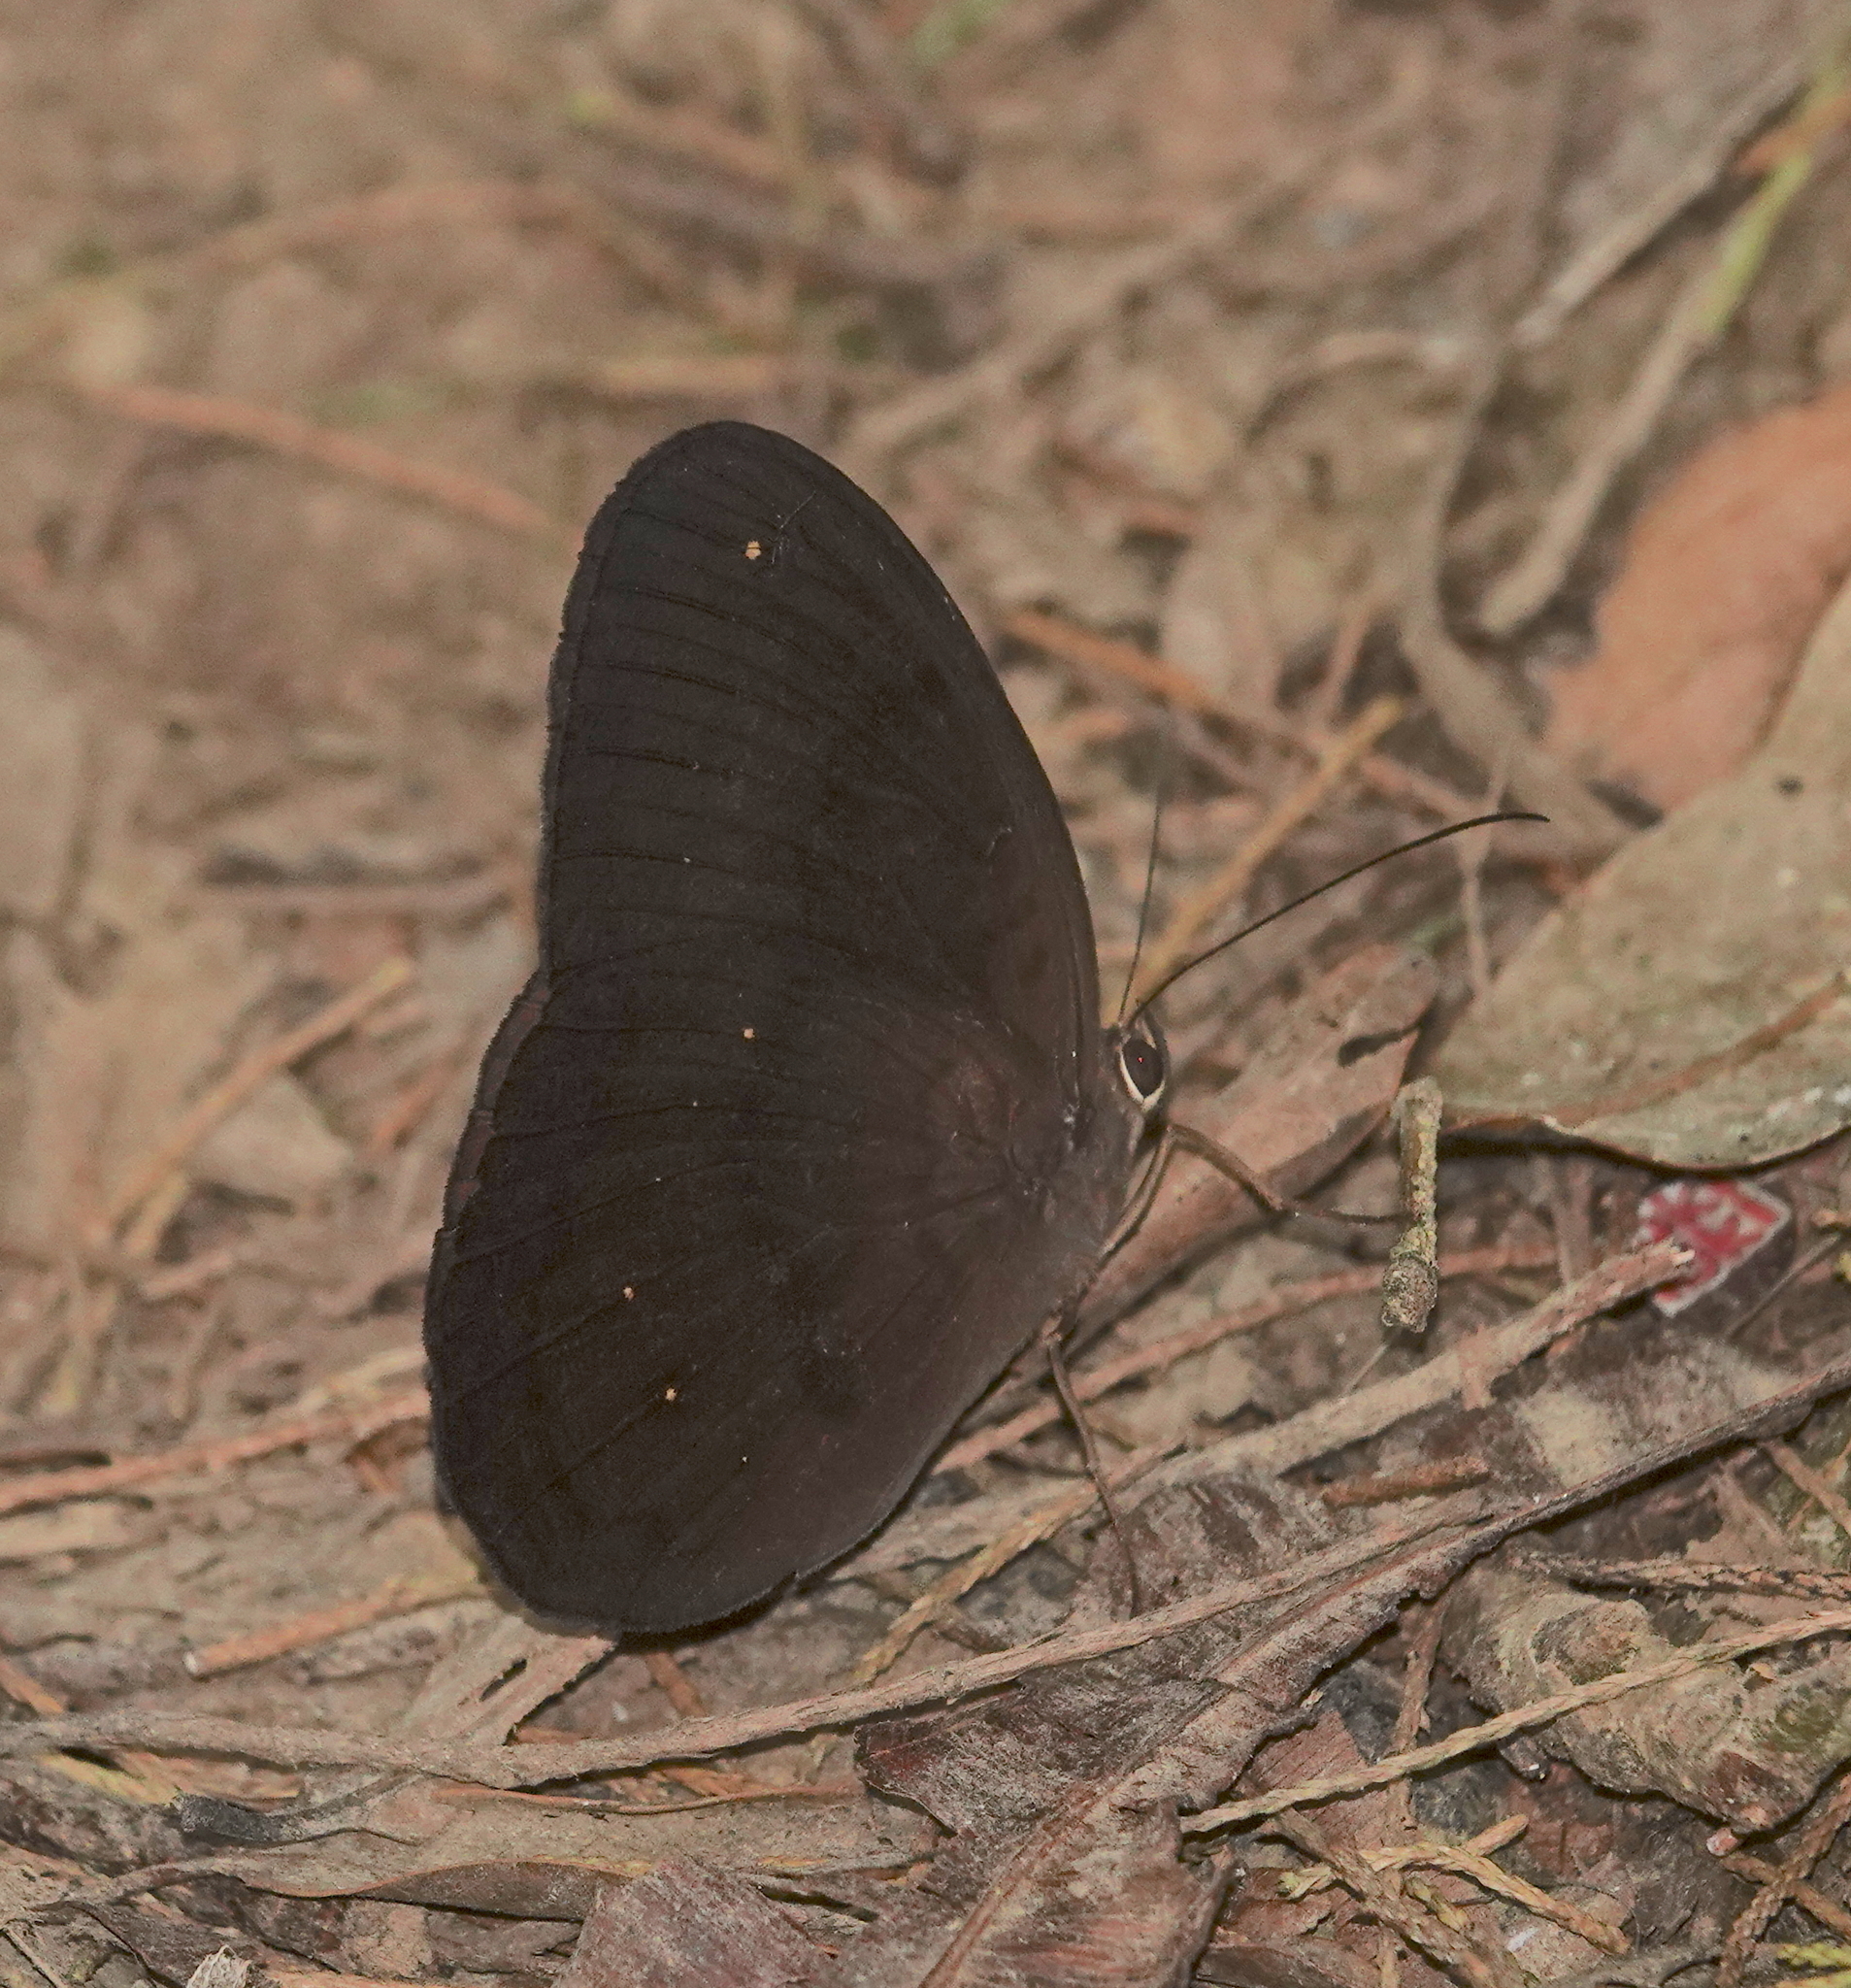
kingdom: Animalia
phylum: Arthropoda
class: Insecta
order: Lepidoptera
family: Nymphalidae
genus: Faunis
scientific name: Faunis canens
